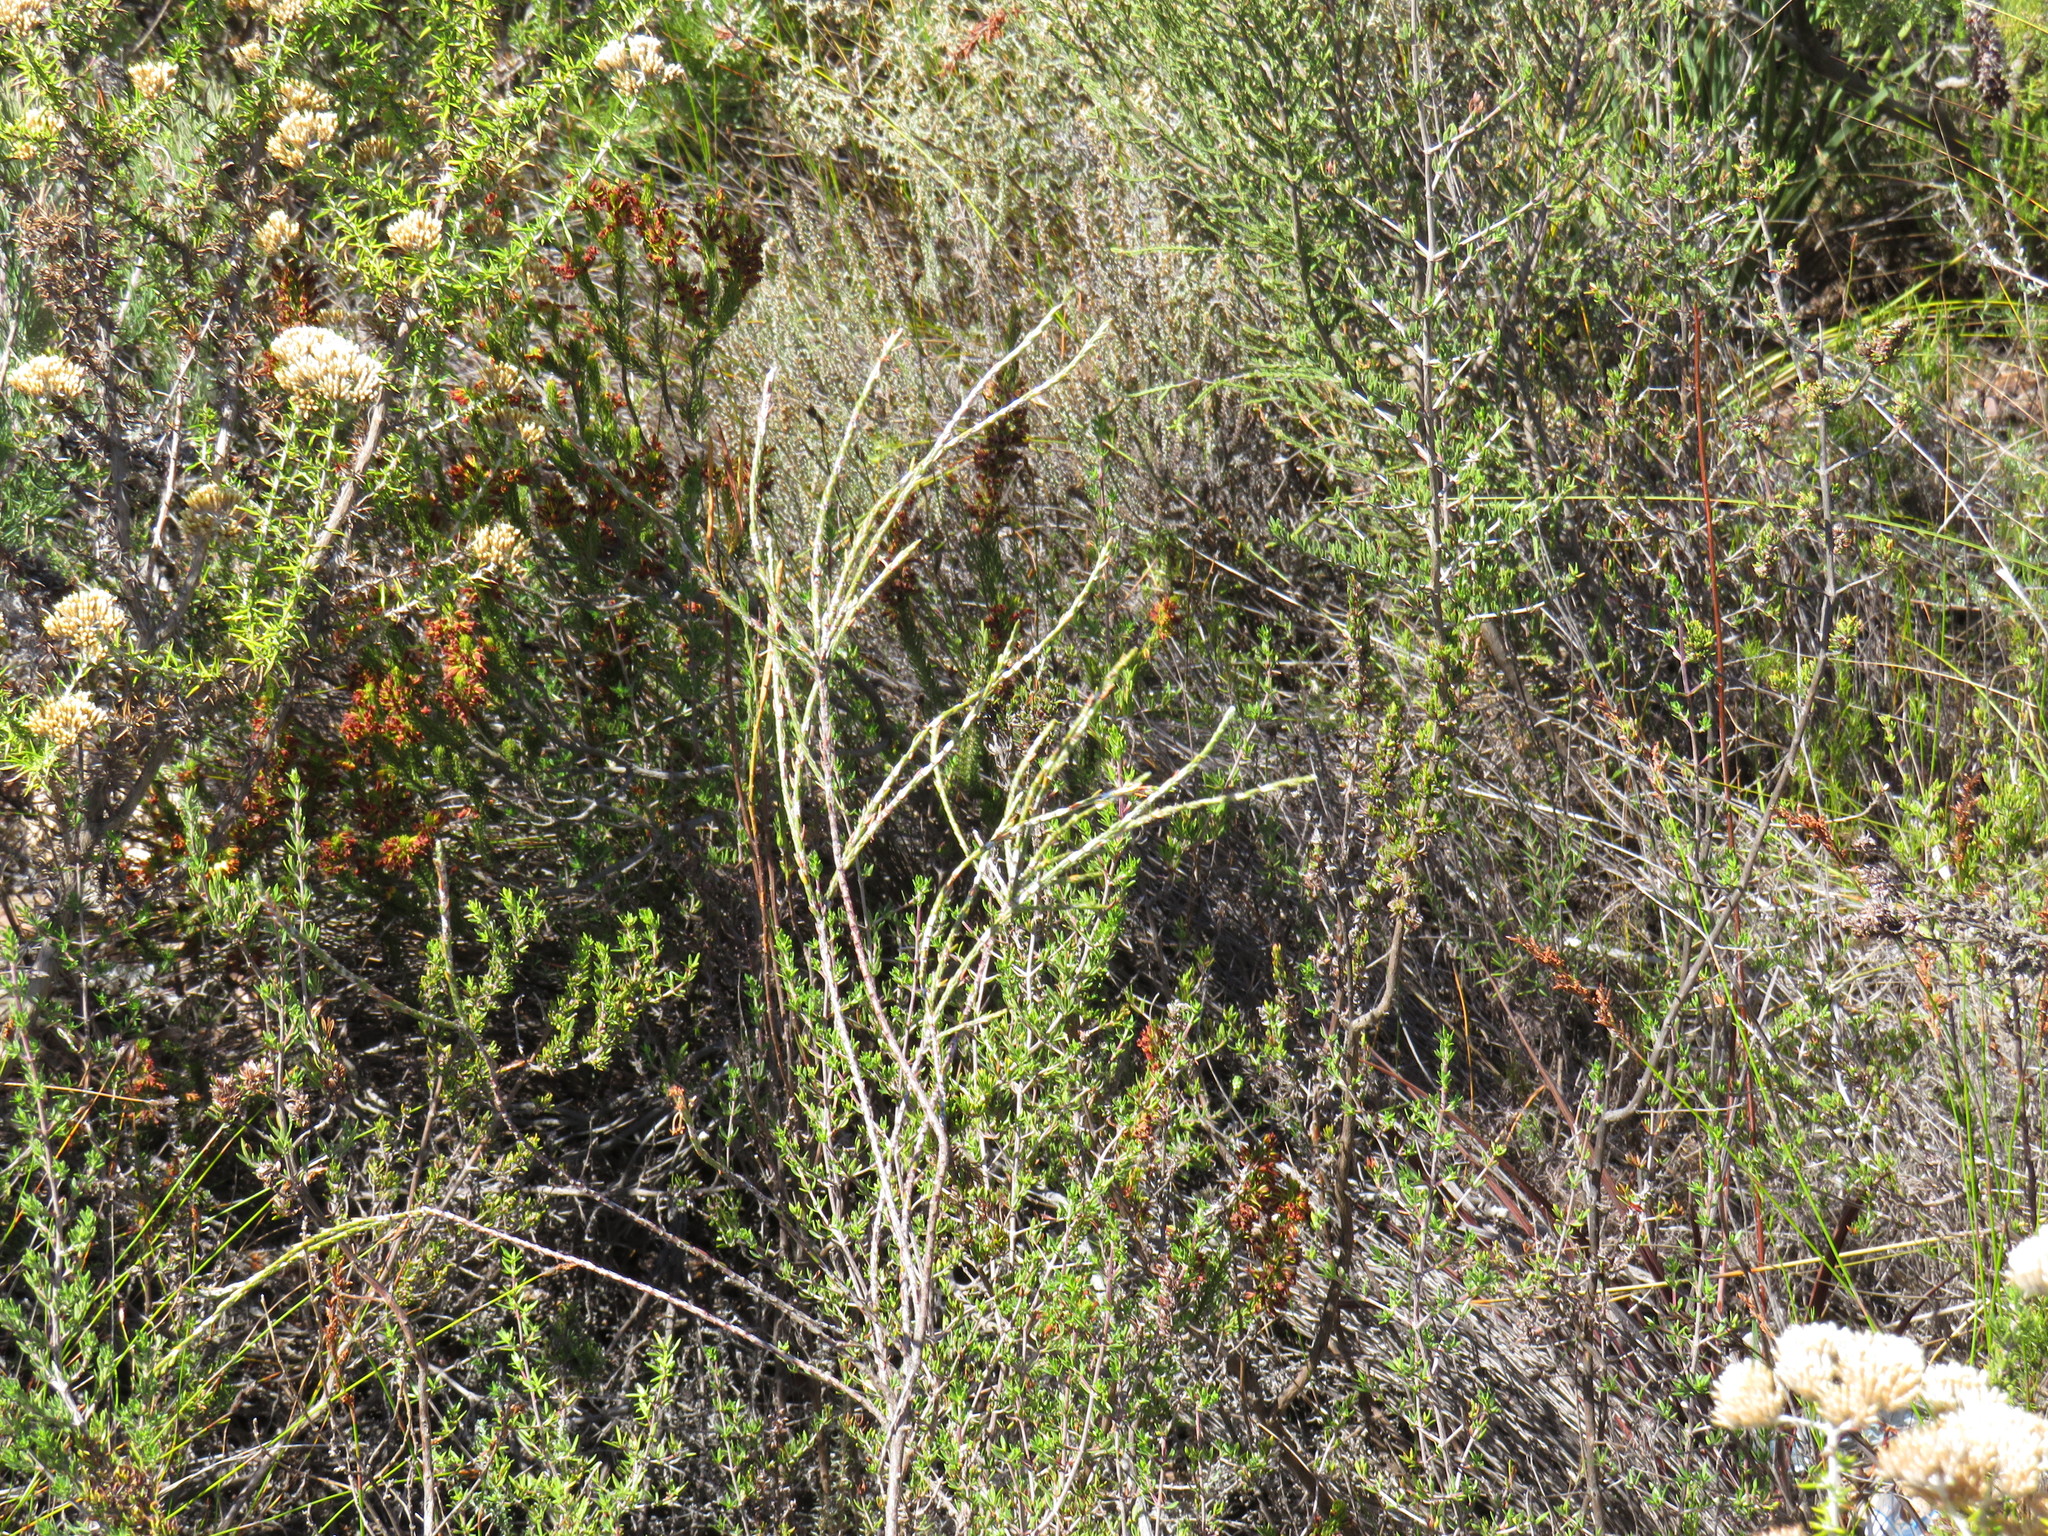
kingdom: Plantae
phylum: Tracheophyta
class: Magnoliopsida
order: Ericales
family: Ericaceae
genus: Erica
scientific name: Erica parilis
